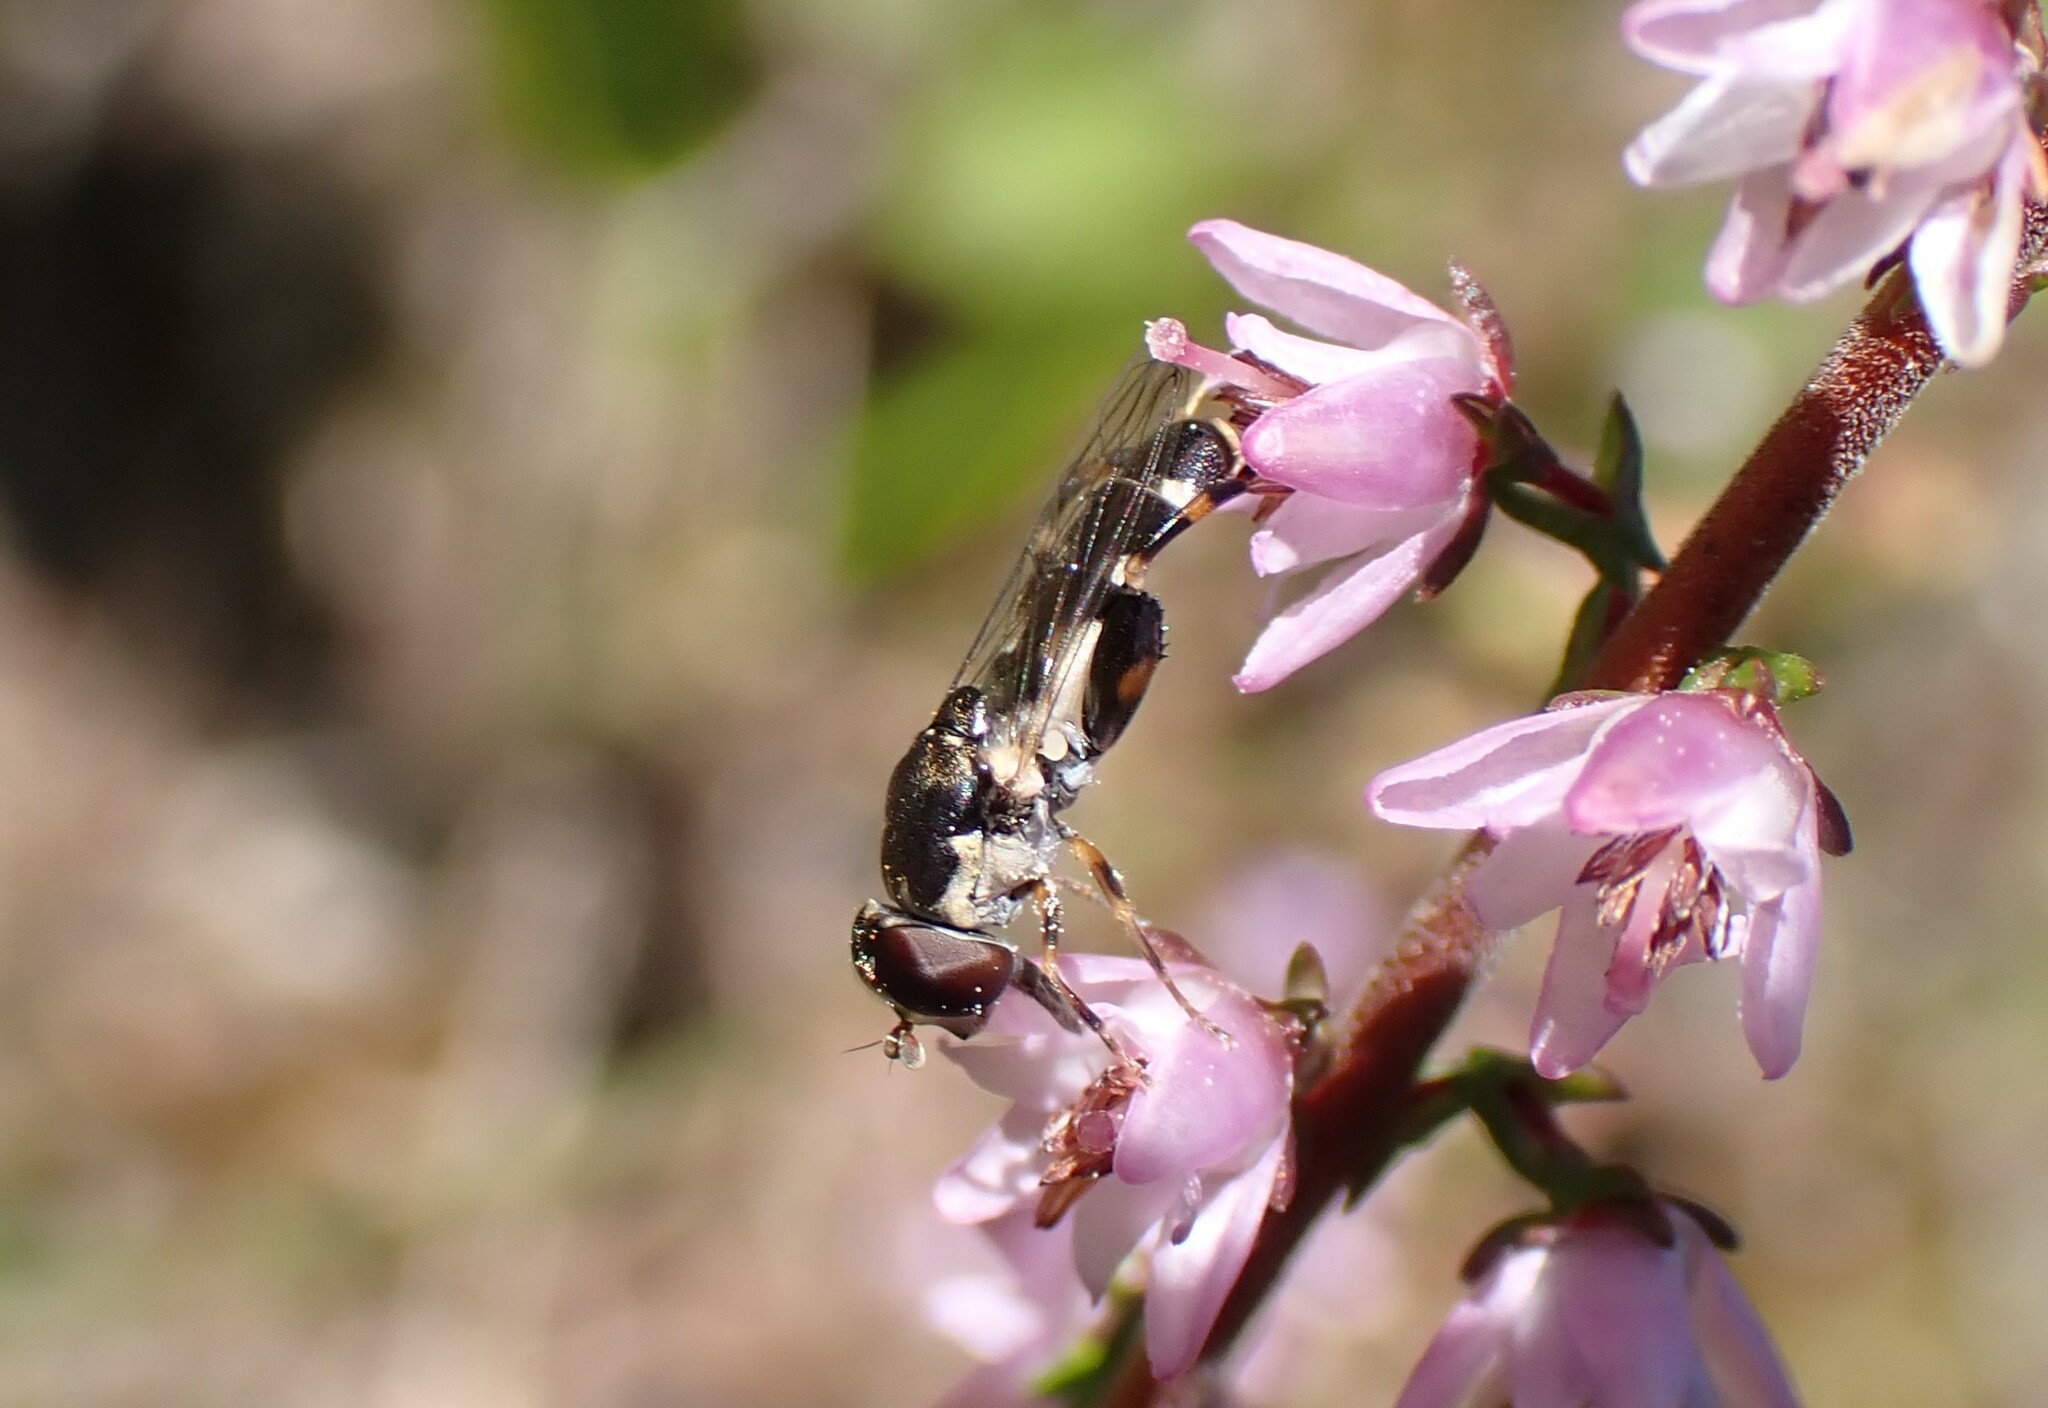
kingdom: Animalia
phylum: Arthropoda
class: Insecta
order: Diptera
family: Syrphidae
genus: Syritta
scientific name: Syritta pipiens
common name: Hover fly
